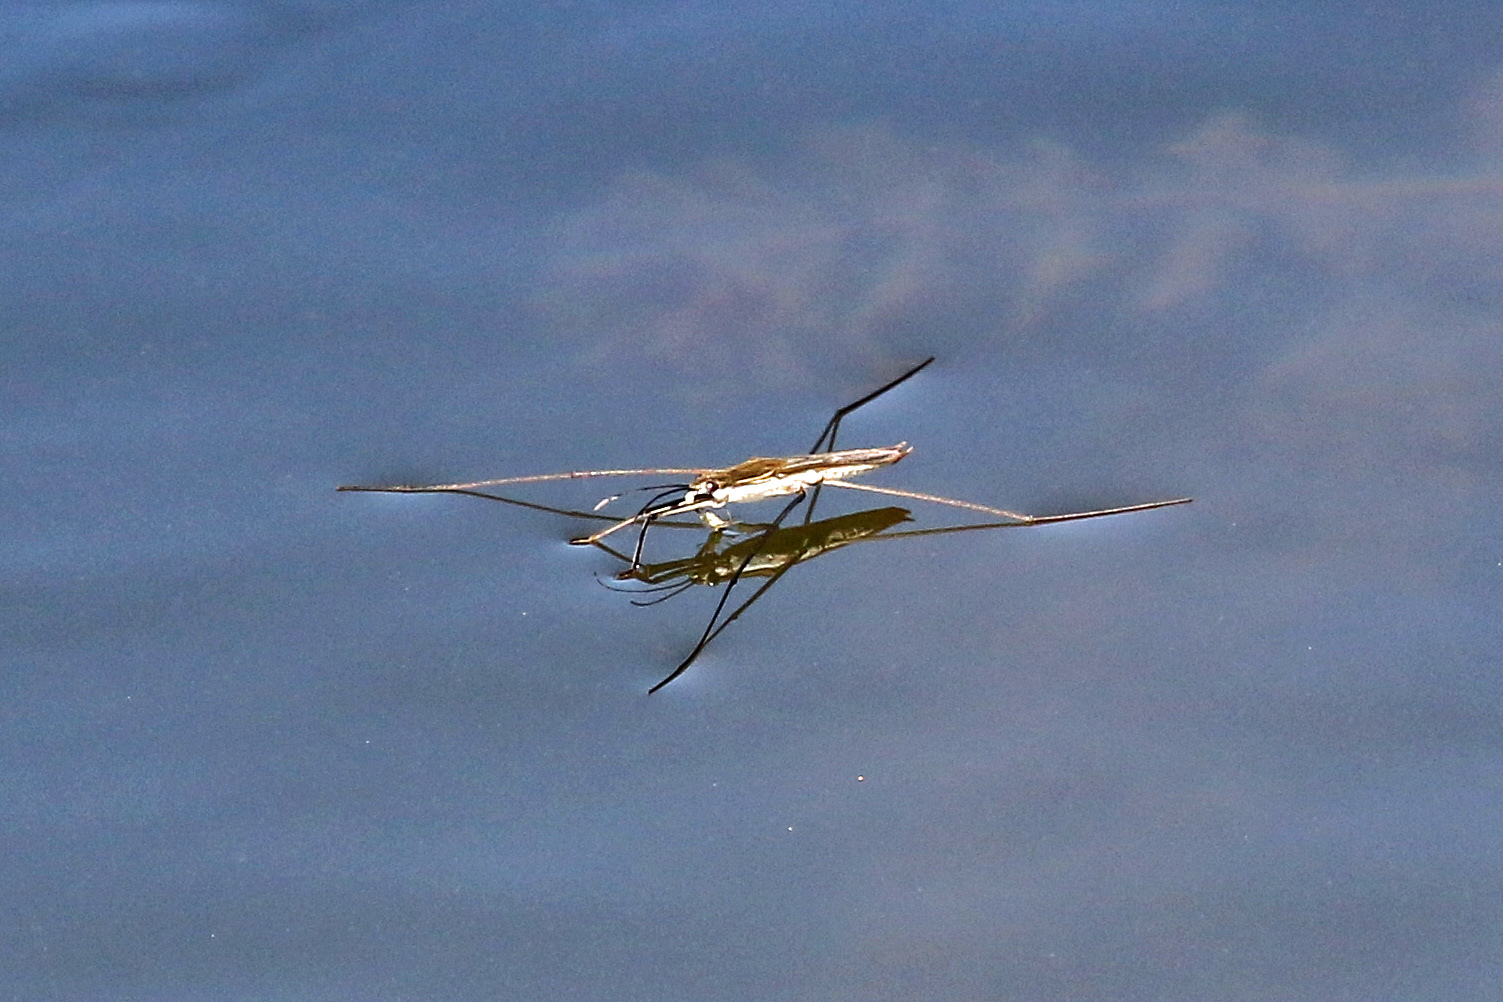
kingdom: Animalia
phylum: Arthropoda
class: Insecta
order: Hemiptera
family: Gerridae
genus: Aquarius
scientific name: Aquarius paludum
